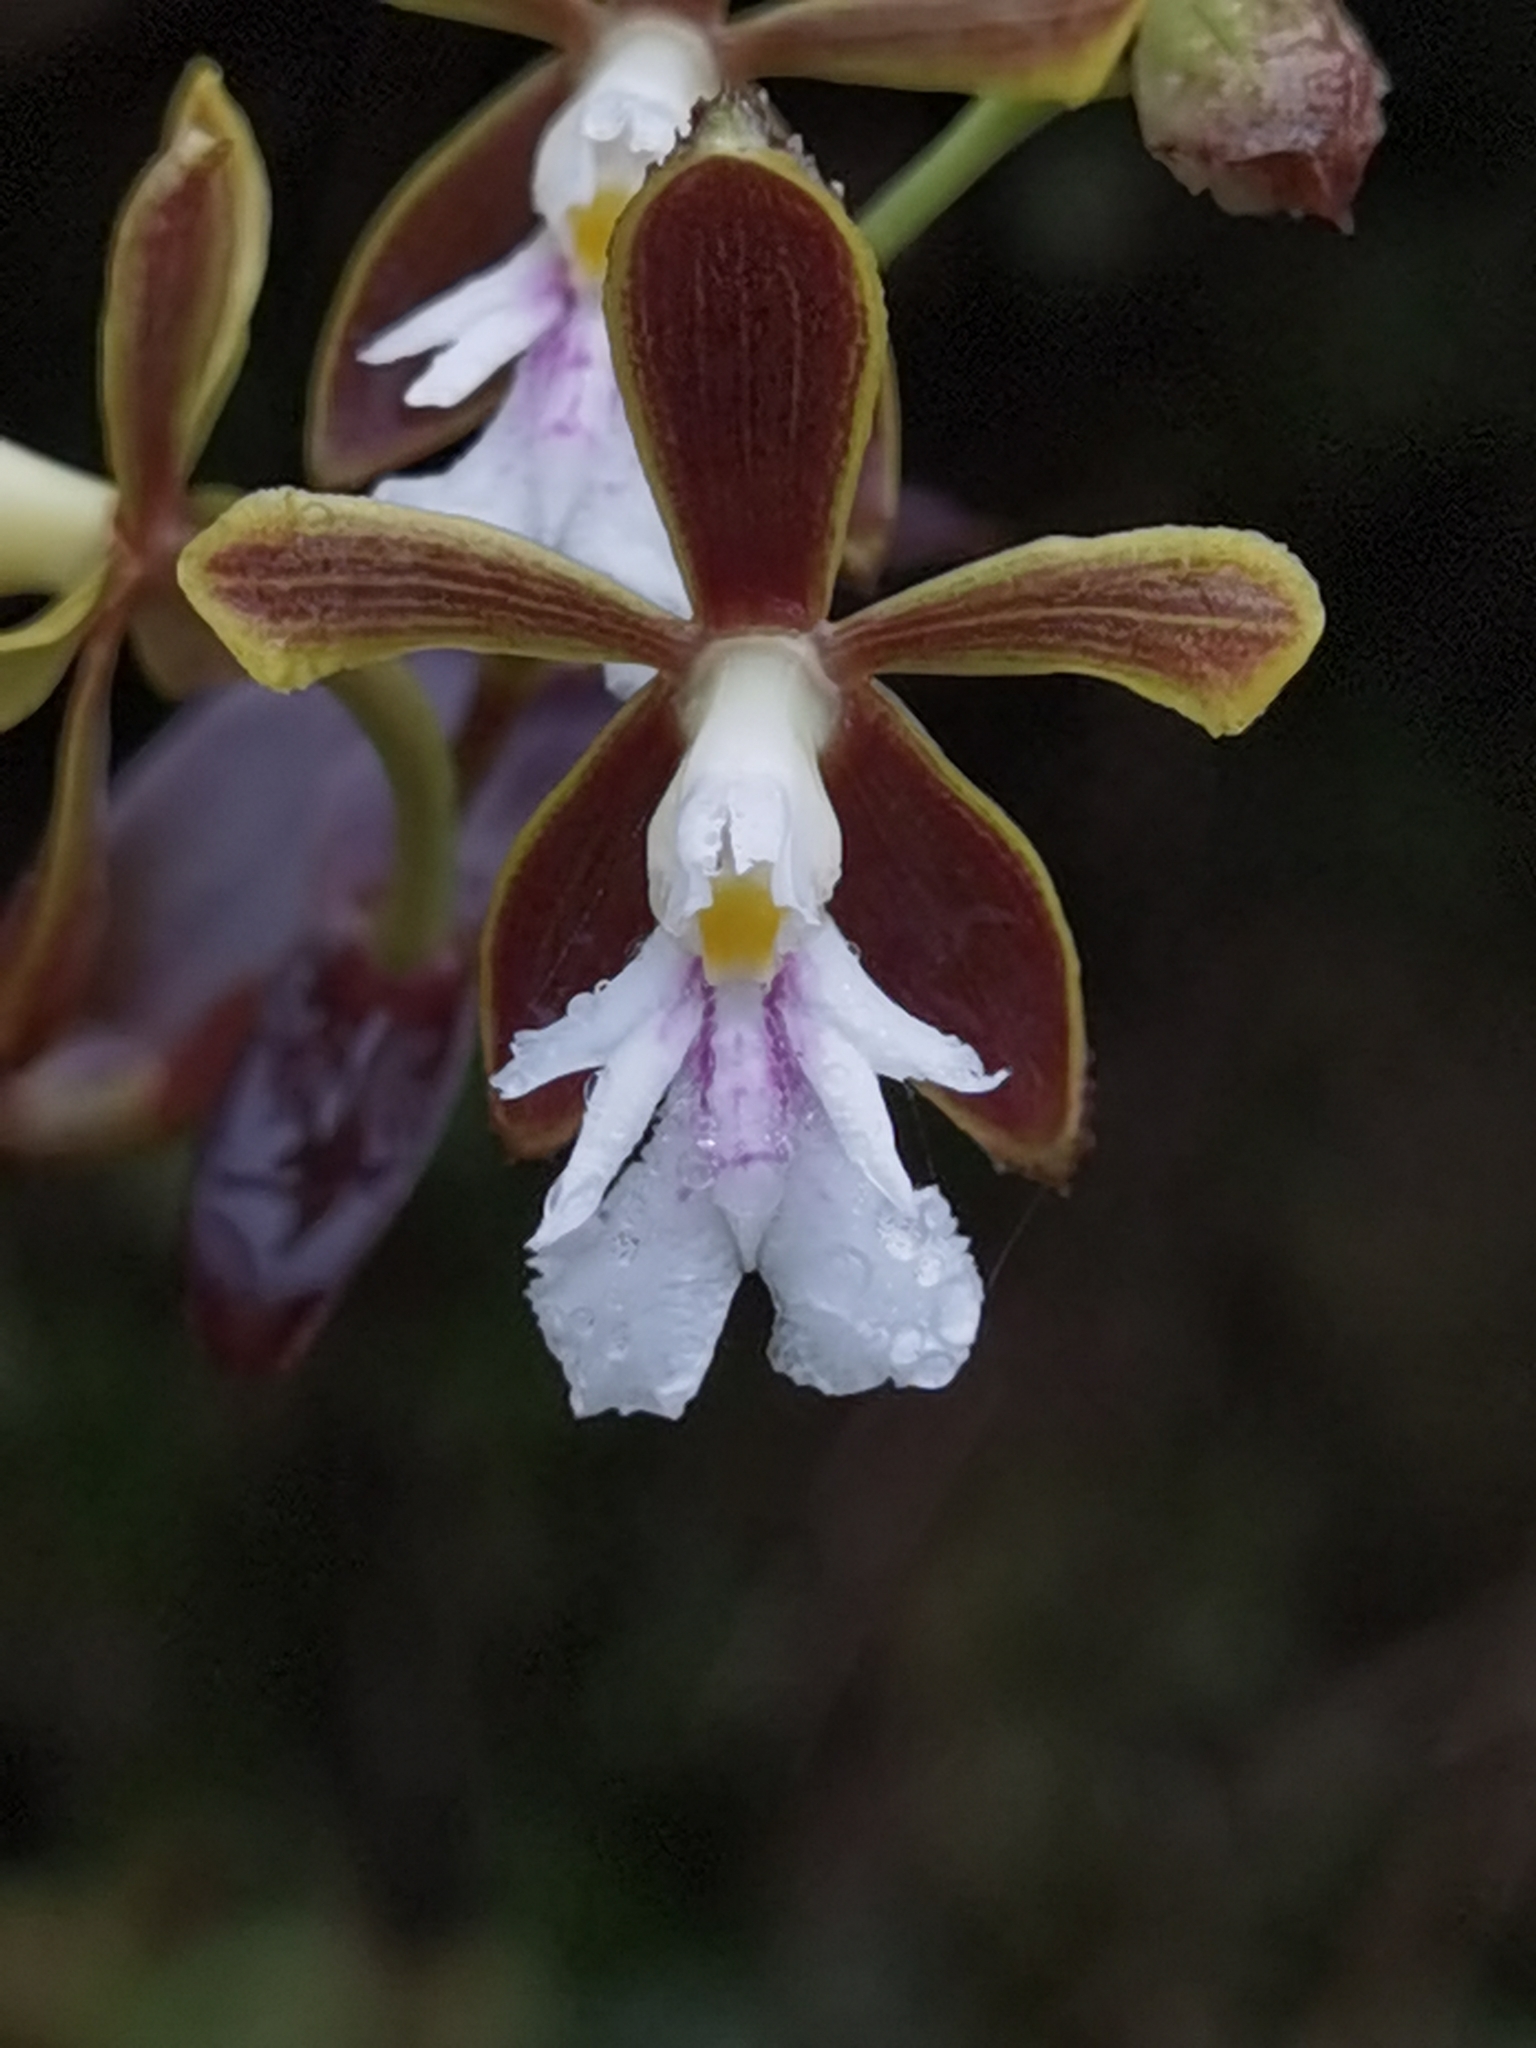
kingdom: Plantae
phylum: Tracheophyta
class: Liliopsida
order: Asparagales
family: Orchidaceae
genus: Epidendrum
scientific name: Epidendrum exasperatum
